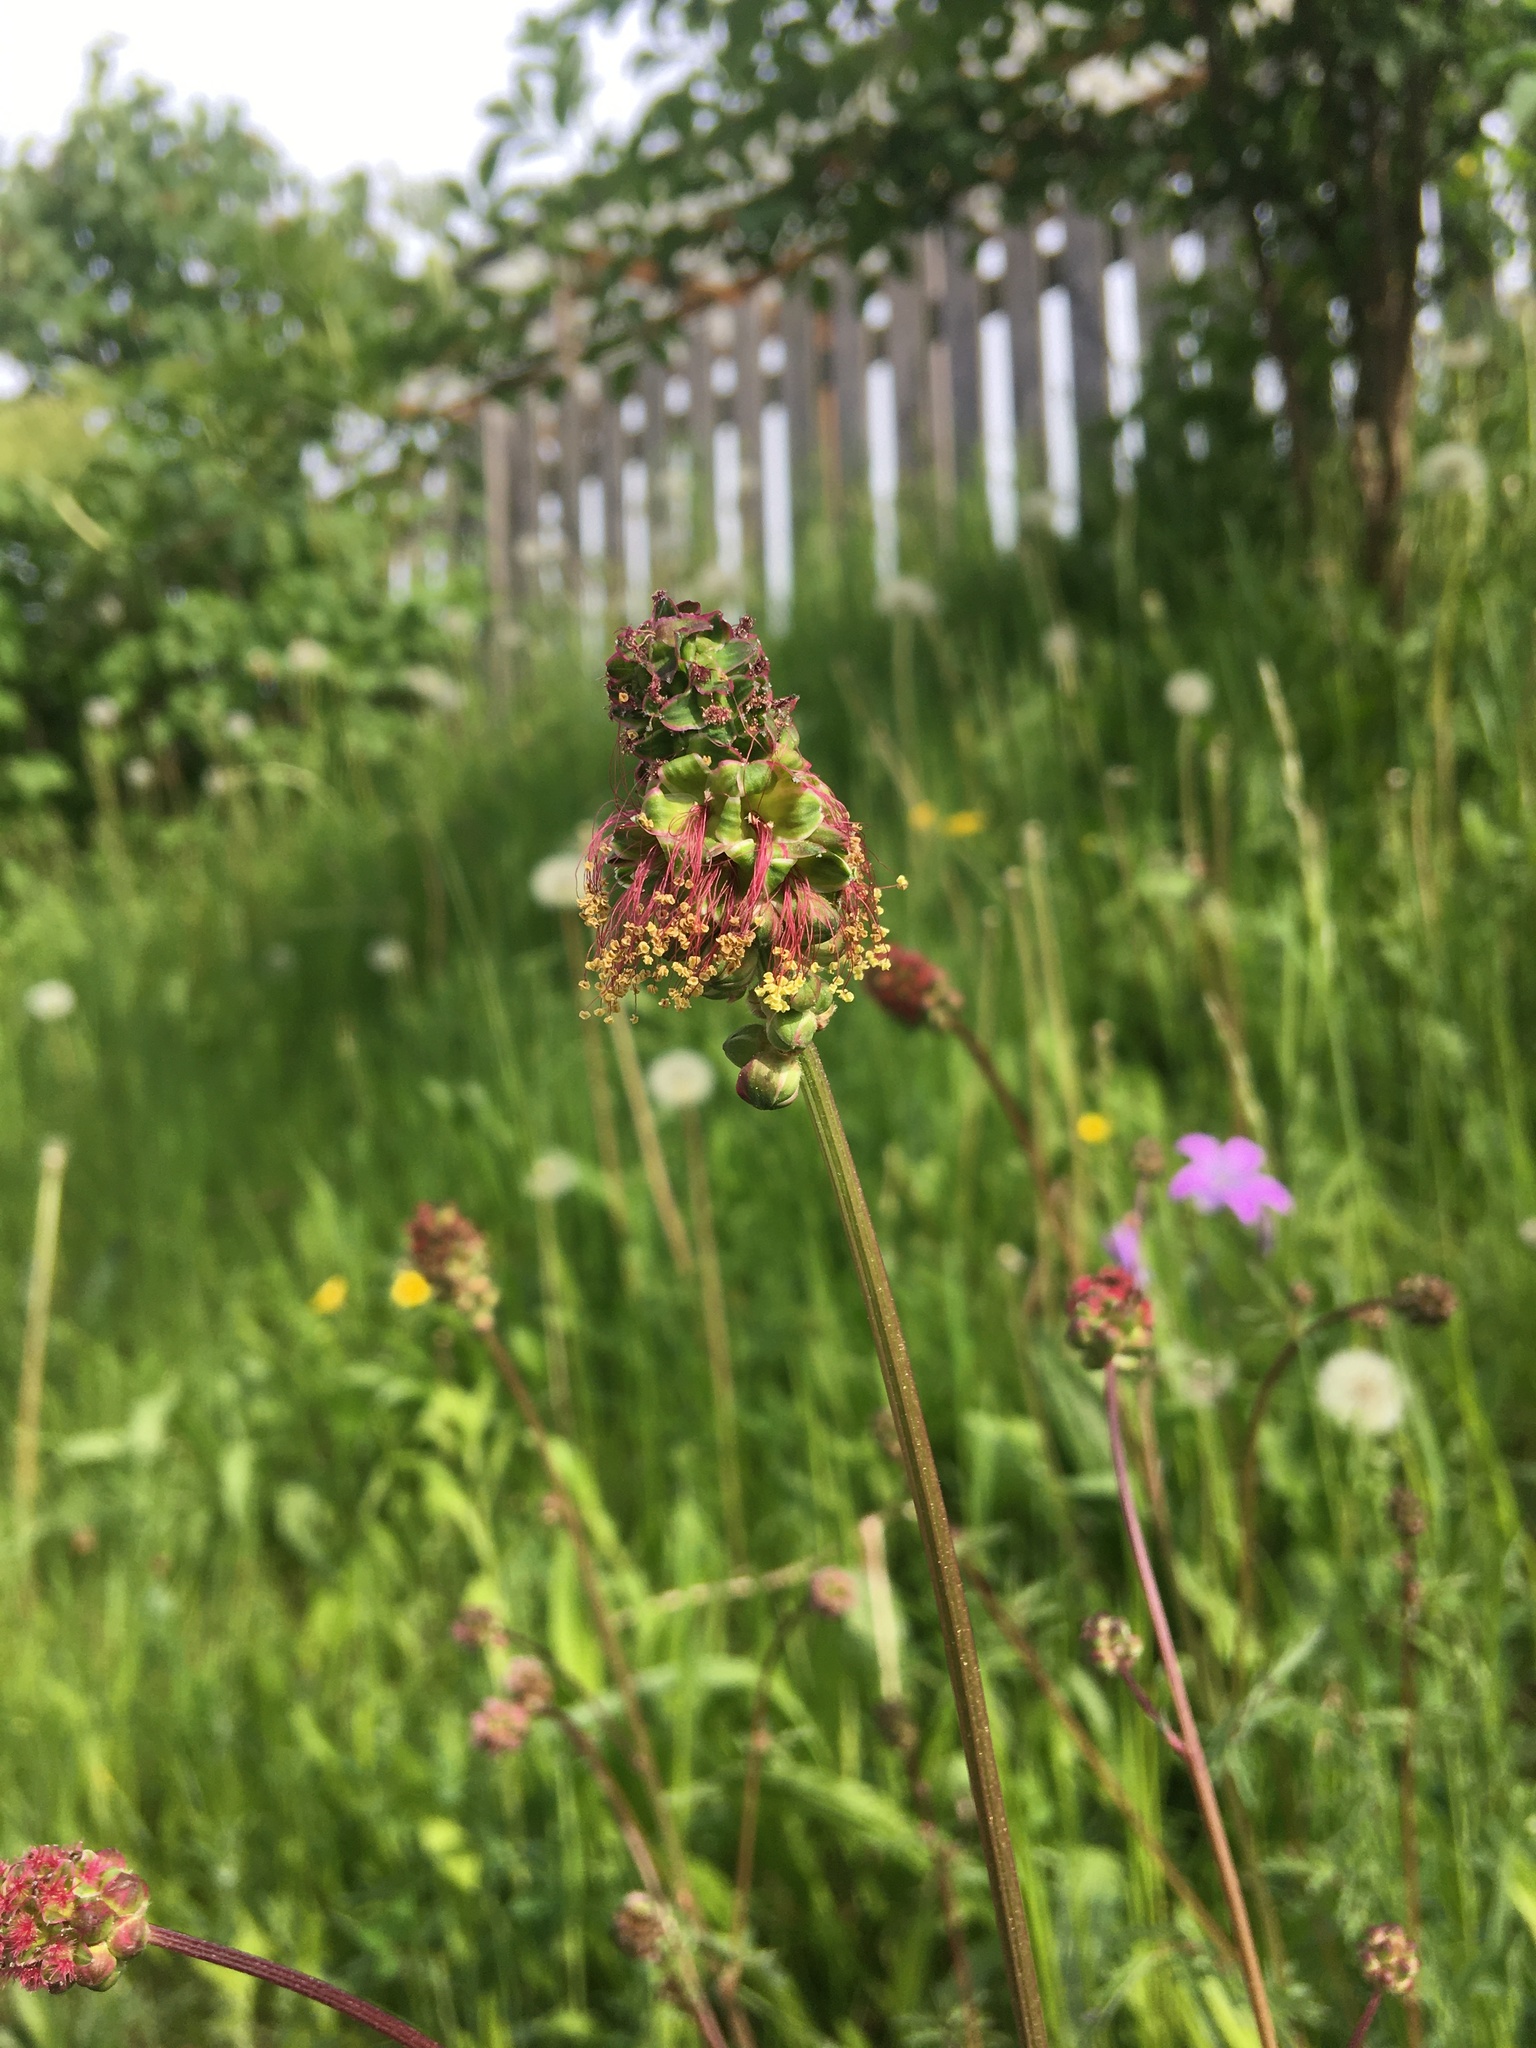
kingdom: Plantae
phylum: Tracheophyta
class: Magnoliopsida
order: Rosales
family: Rosaceae
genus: Poterium
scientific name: Poterium sanguisorba
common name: Salad burnet
